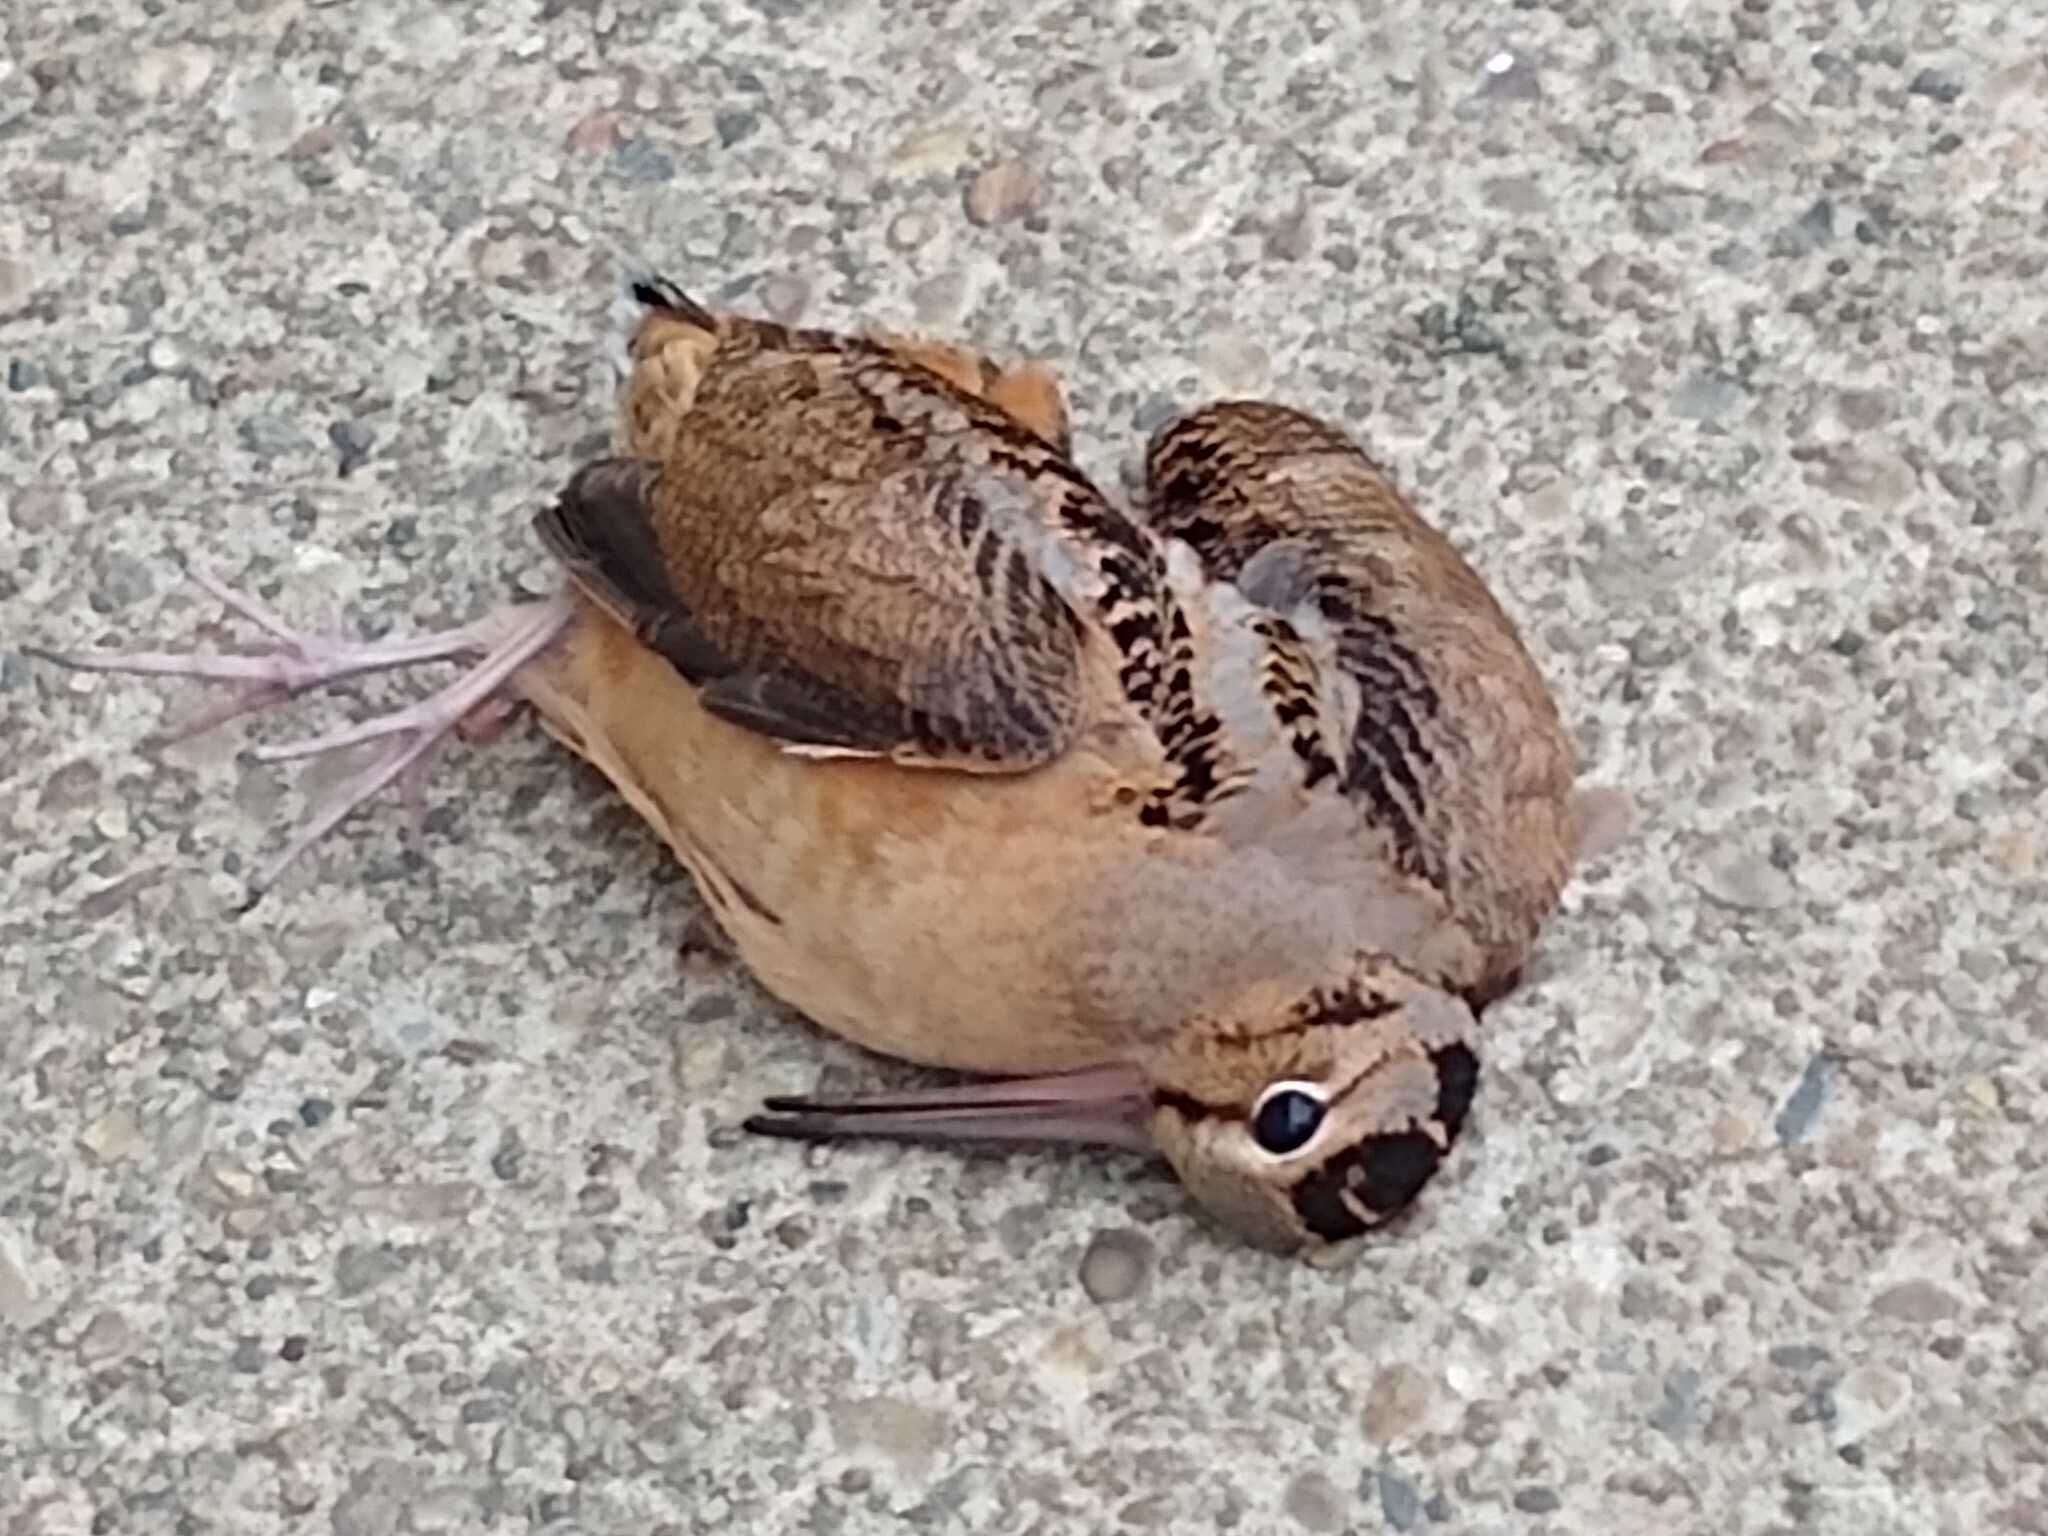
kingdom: Animalia
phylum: Chordata
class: Aves
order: Charadriiformes
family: Scolopacidae
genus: Scolopax
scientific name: Scolopax minor
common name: American woodcock
